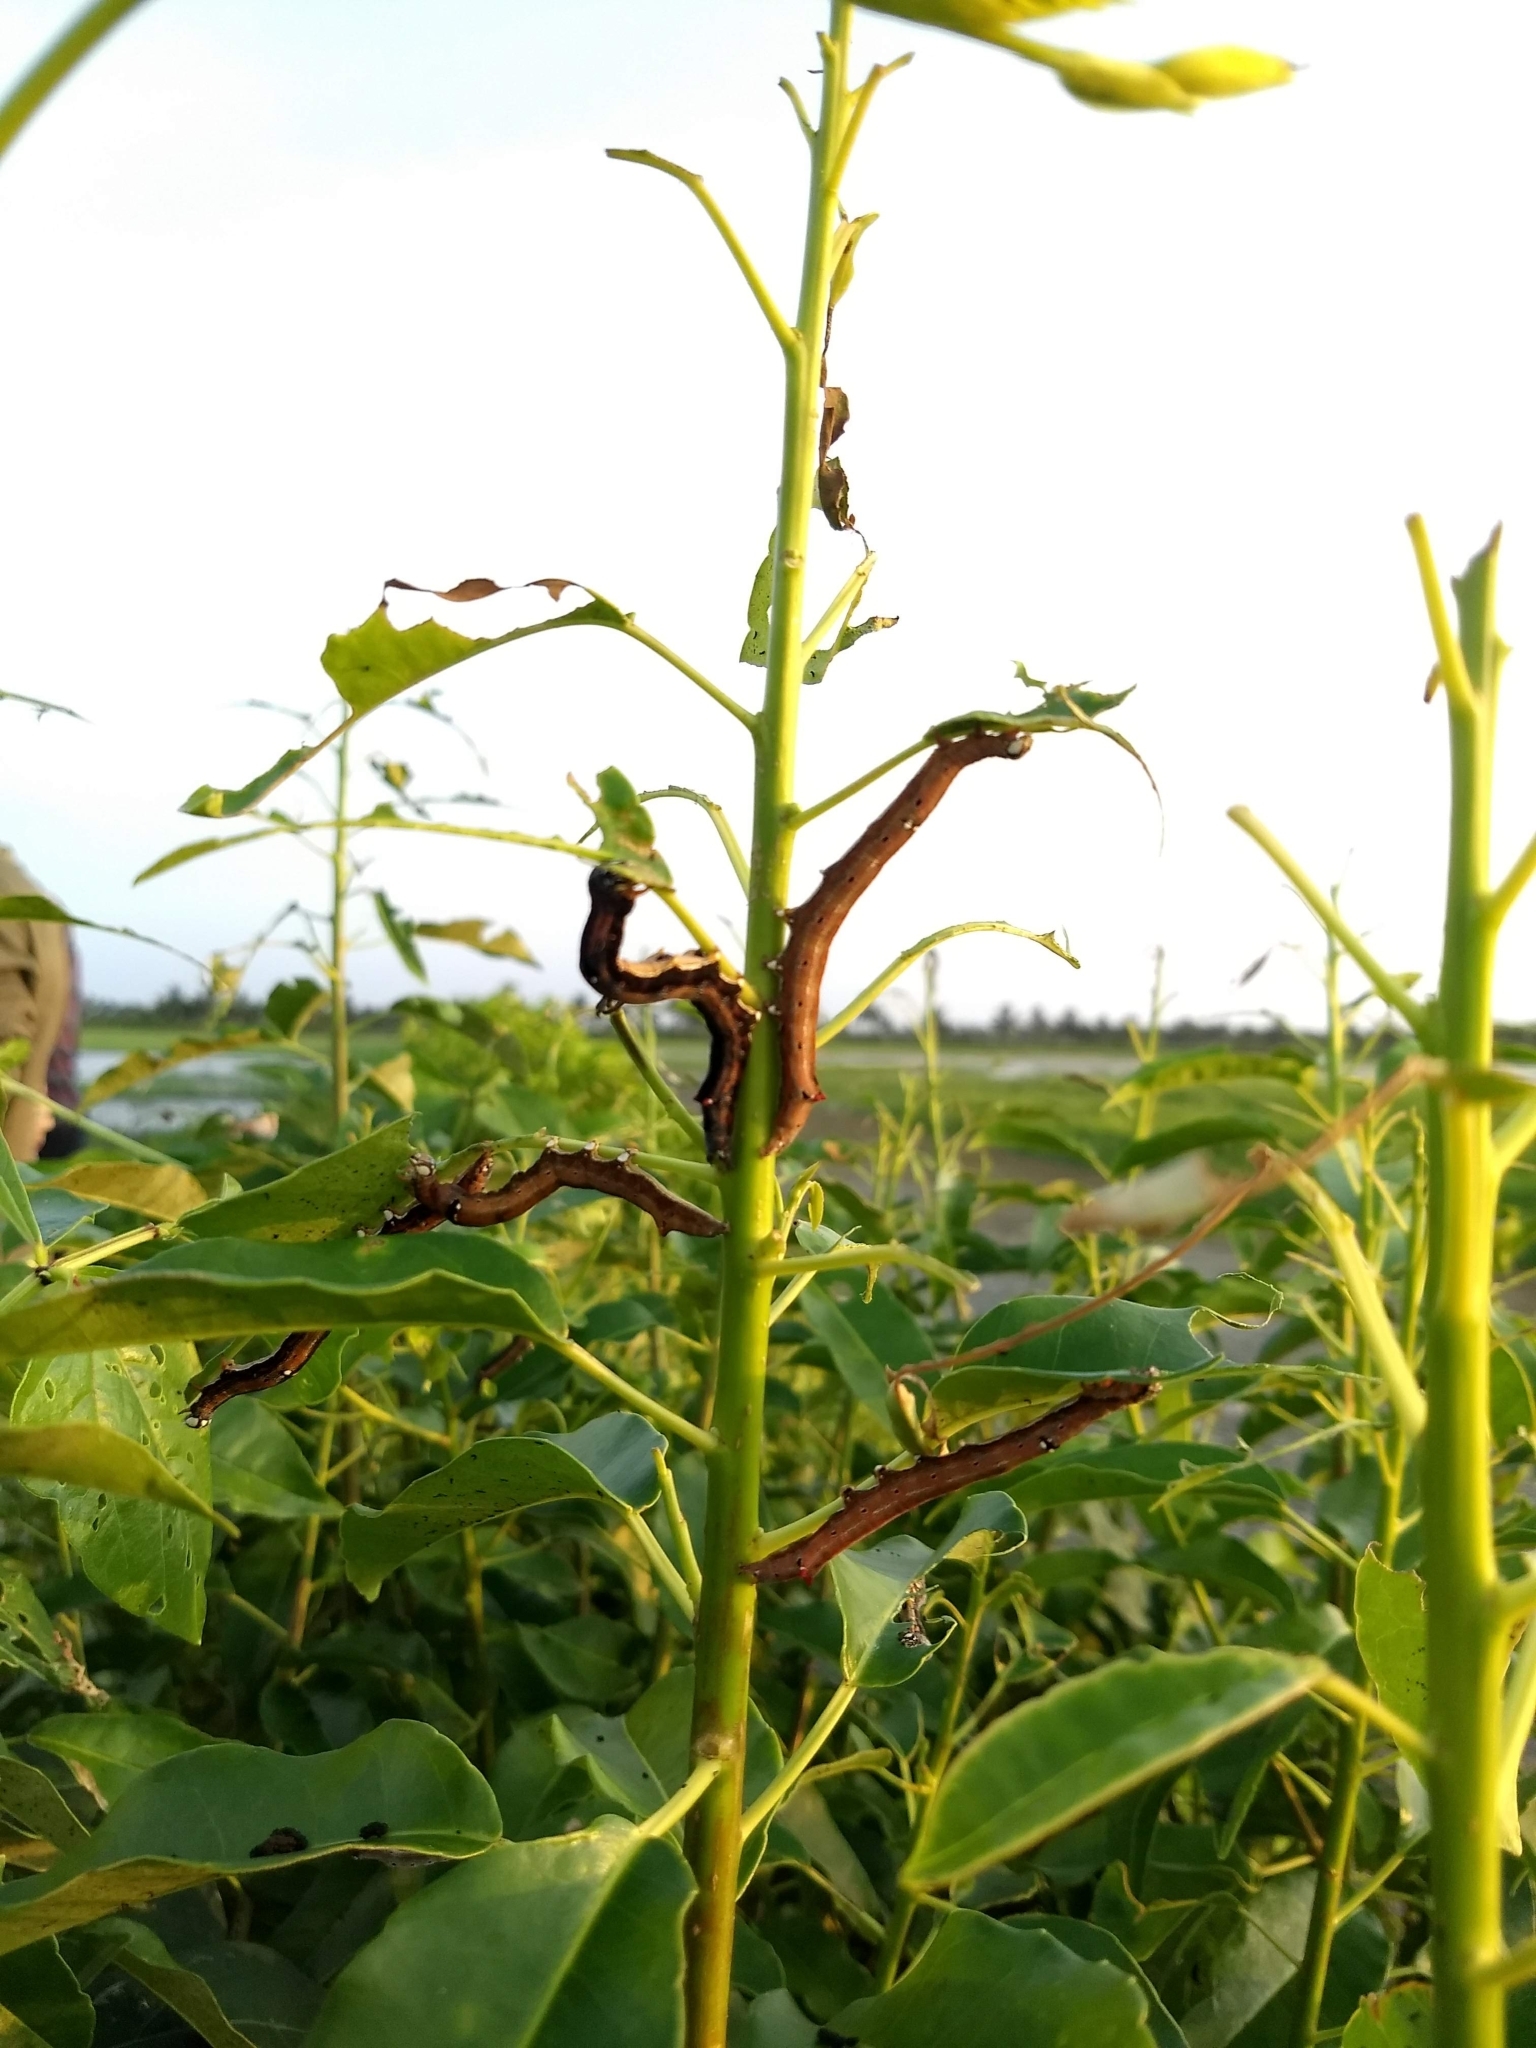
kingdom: Animalia
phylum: Arthropoda
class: Insecta
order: Lepidoptera
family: Erebidae
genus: Achaea
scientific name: Achaea janata
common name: Croton caterpillar
